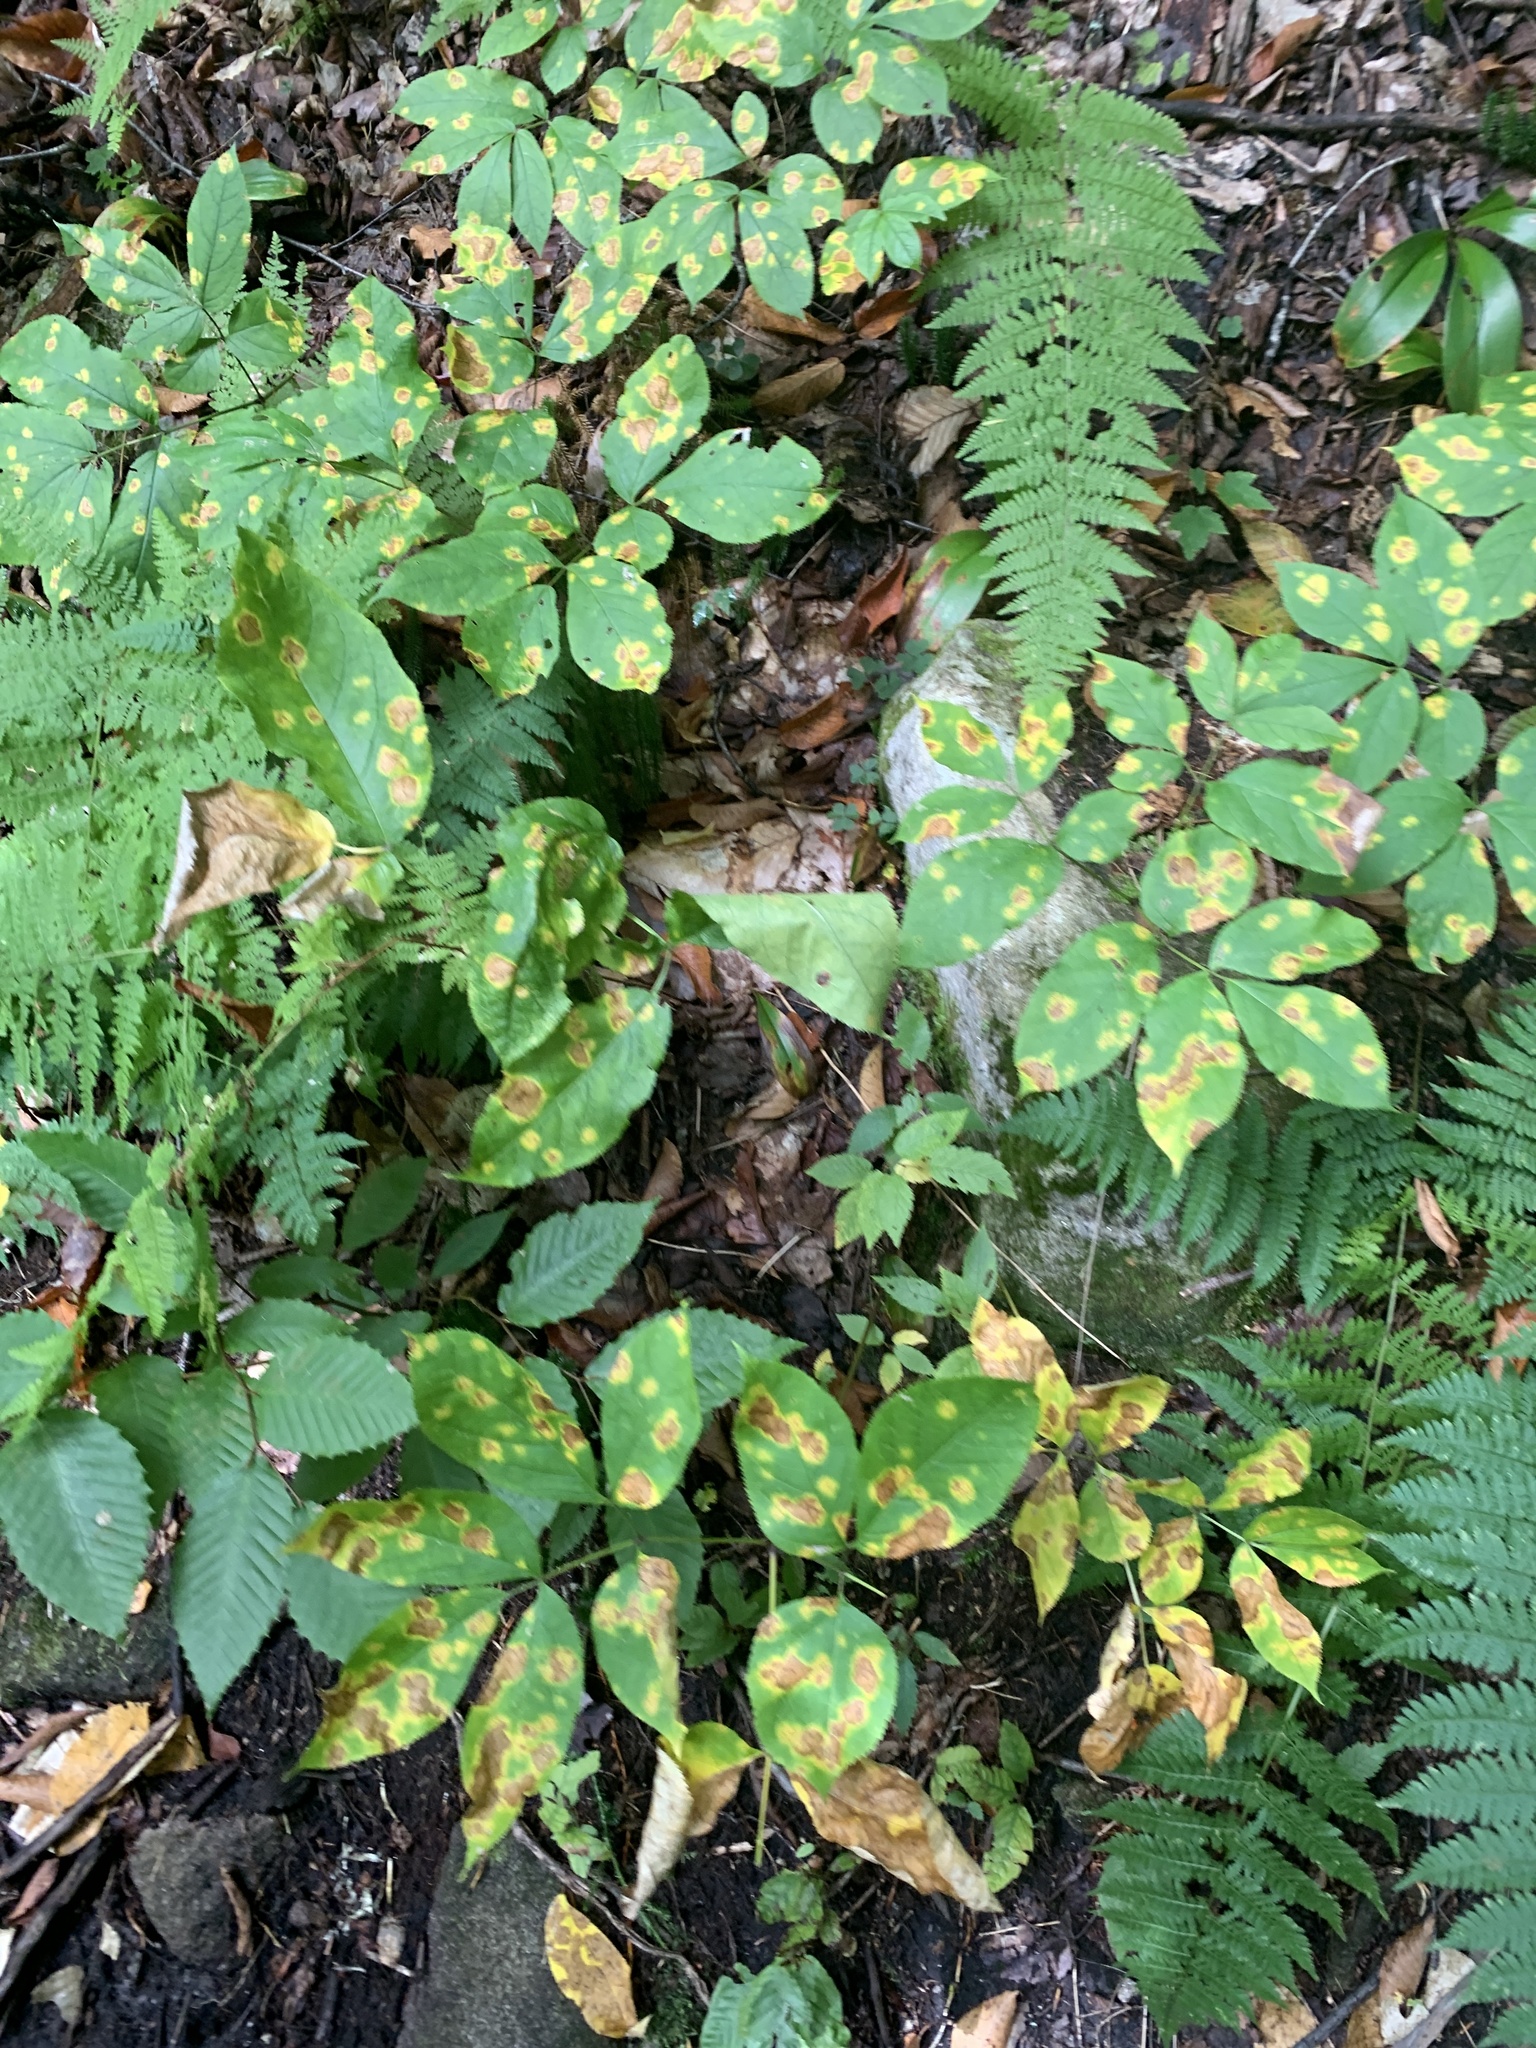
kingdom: Plantae
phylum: Tracheophyta
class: Magnoliopsida
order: Apiales
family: Araliaceae
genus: Aralia
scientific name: Aralia nudicaulis
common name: Wild sarsaparilla
